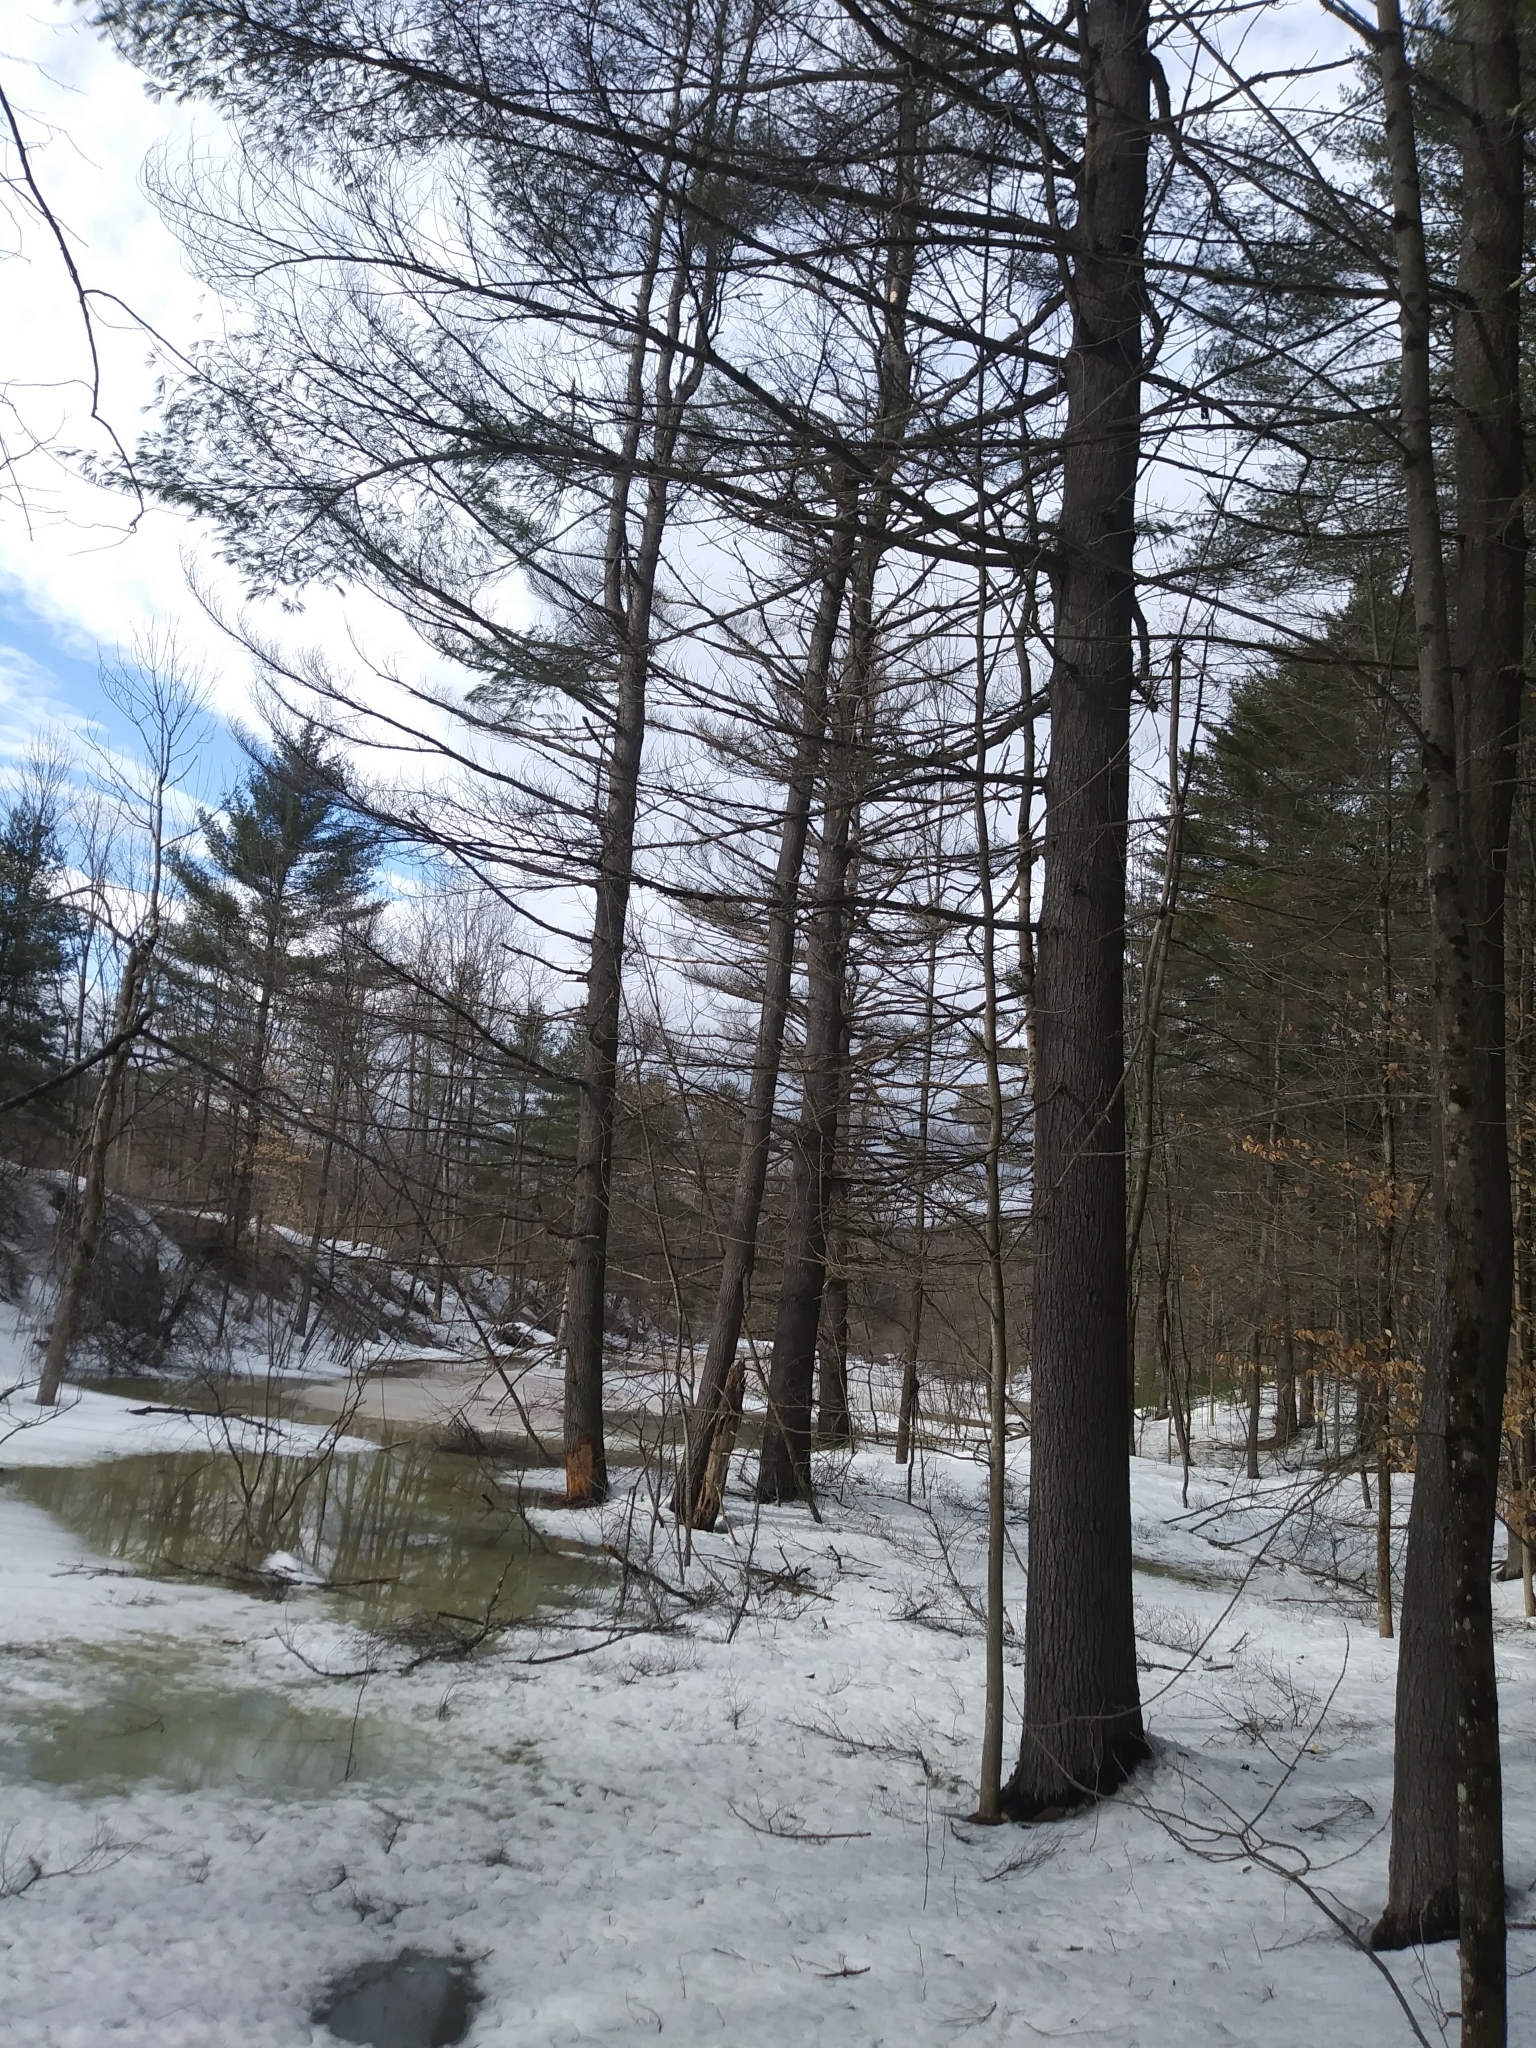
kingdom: Plantae
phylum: Tracheophyta
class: Pinopsida
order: Pinales
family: Pinaceae
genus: Pinus
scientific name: Pinus strobus
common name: Weymouth pine
